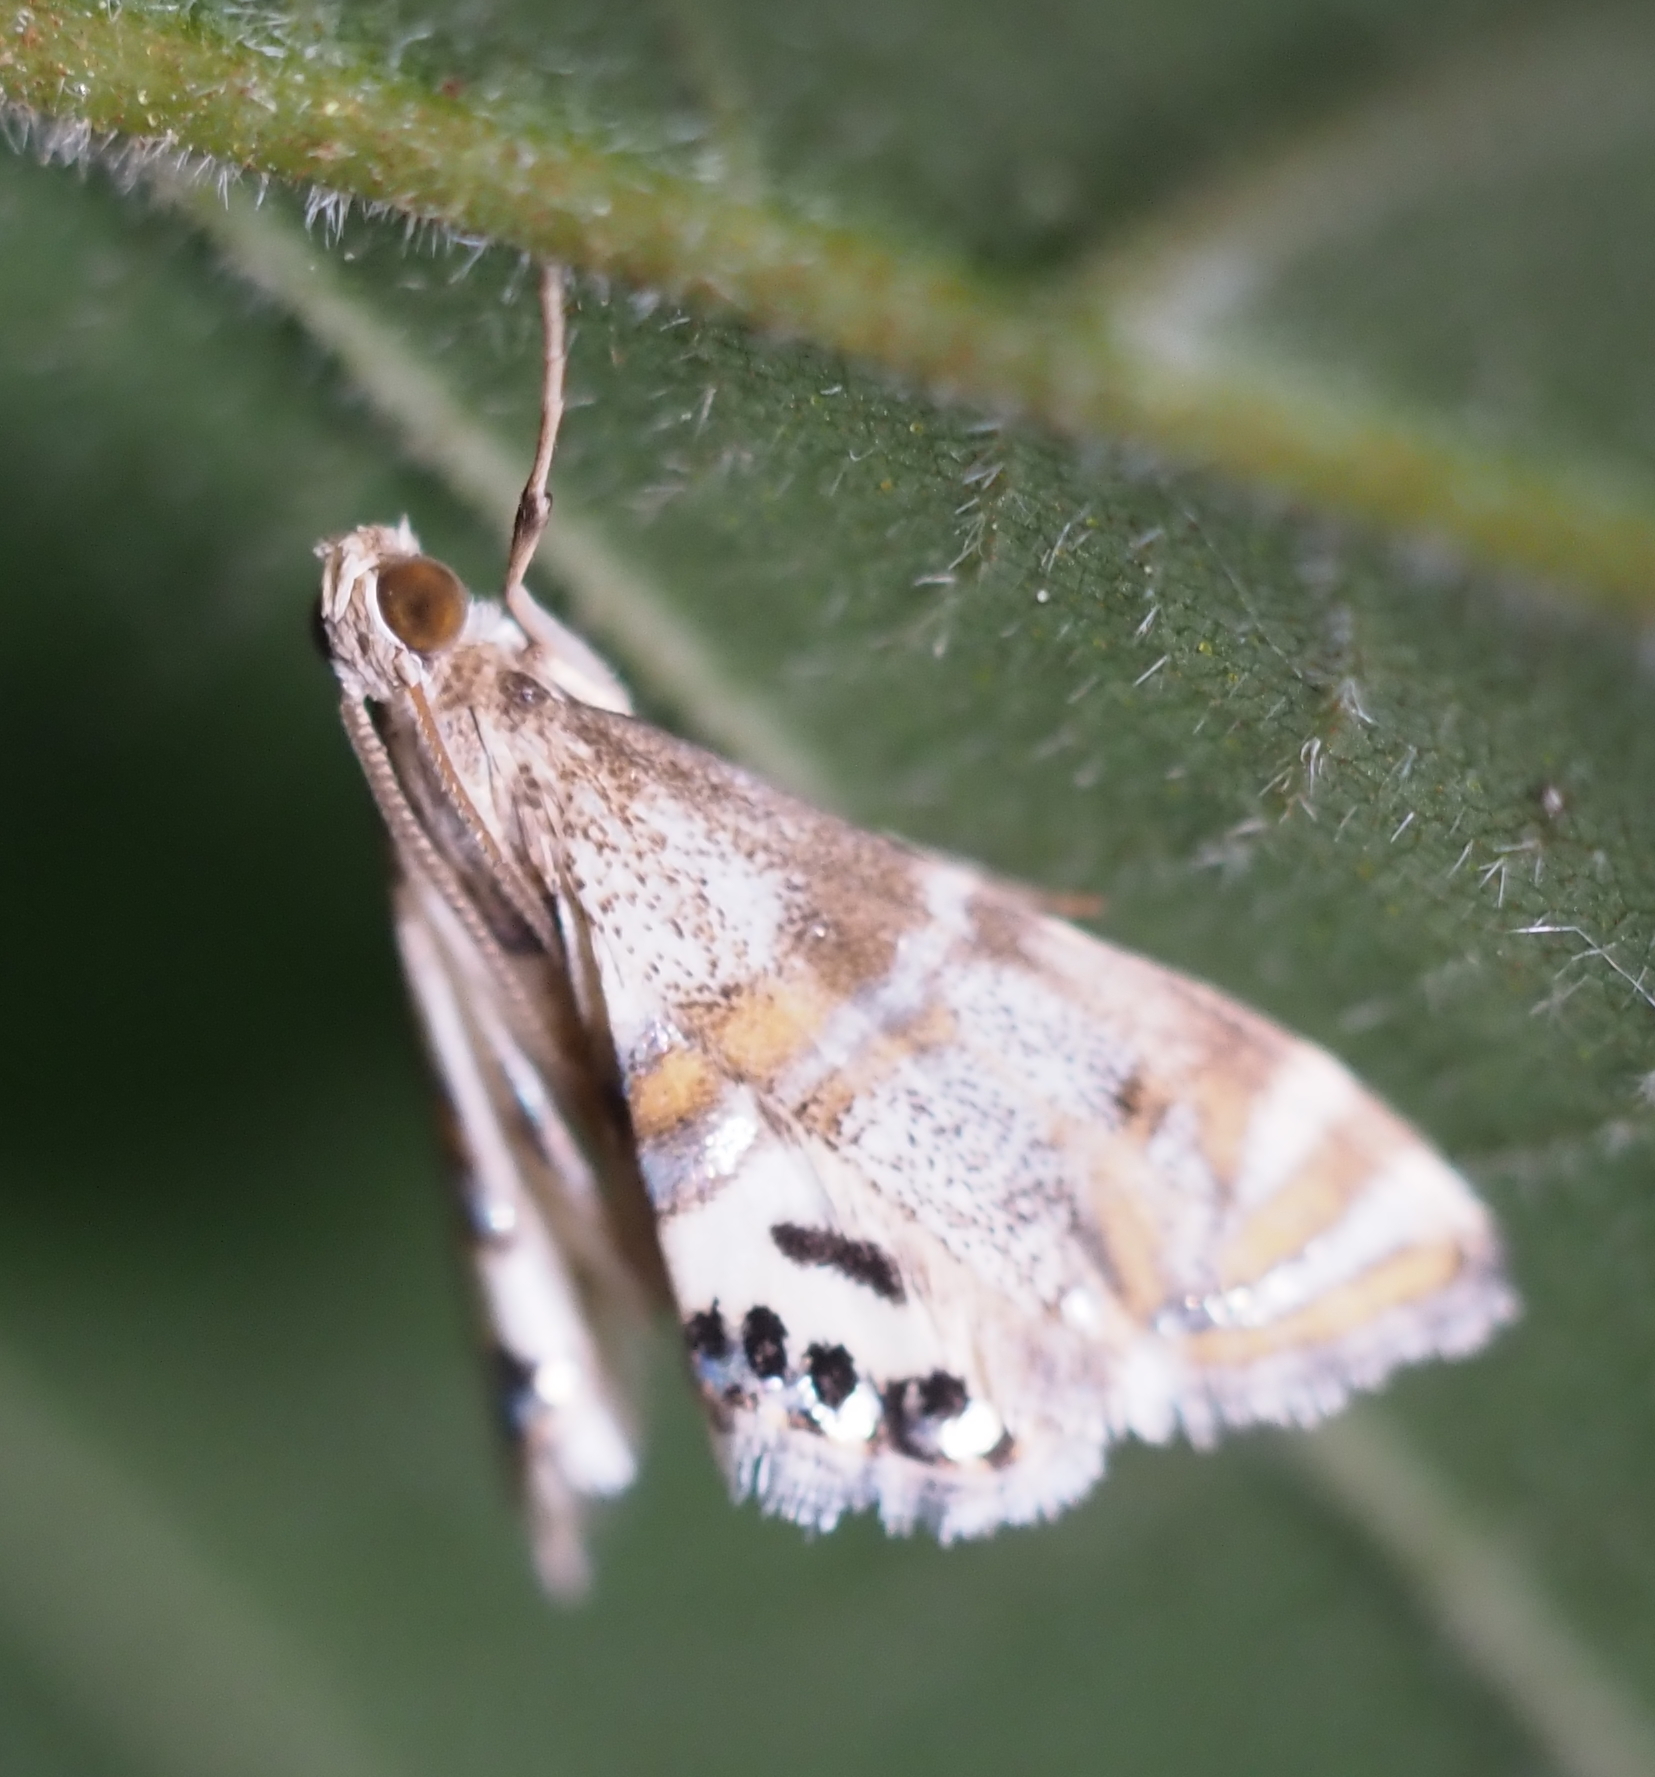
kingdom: Animalia
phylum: Arthropoda
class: Insecta
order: Lepidoptera
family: Crambidae
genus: Petrophila
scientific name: Petrophila bifascialis
